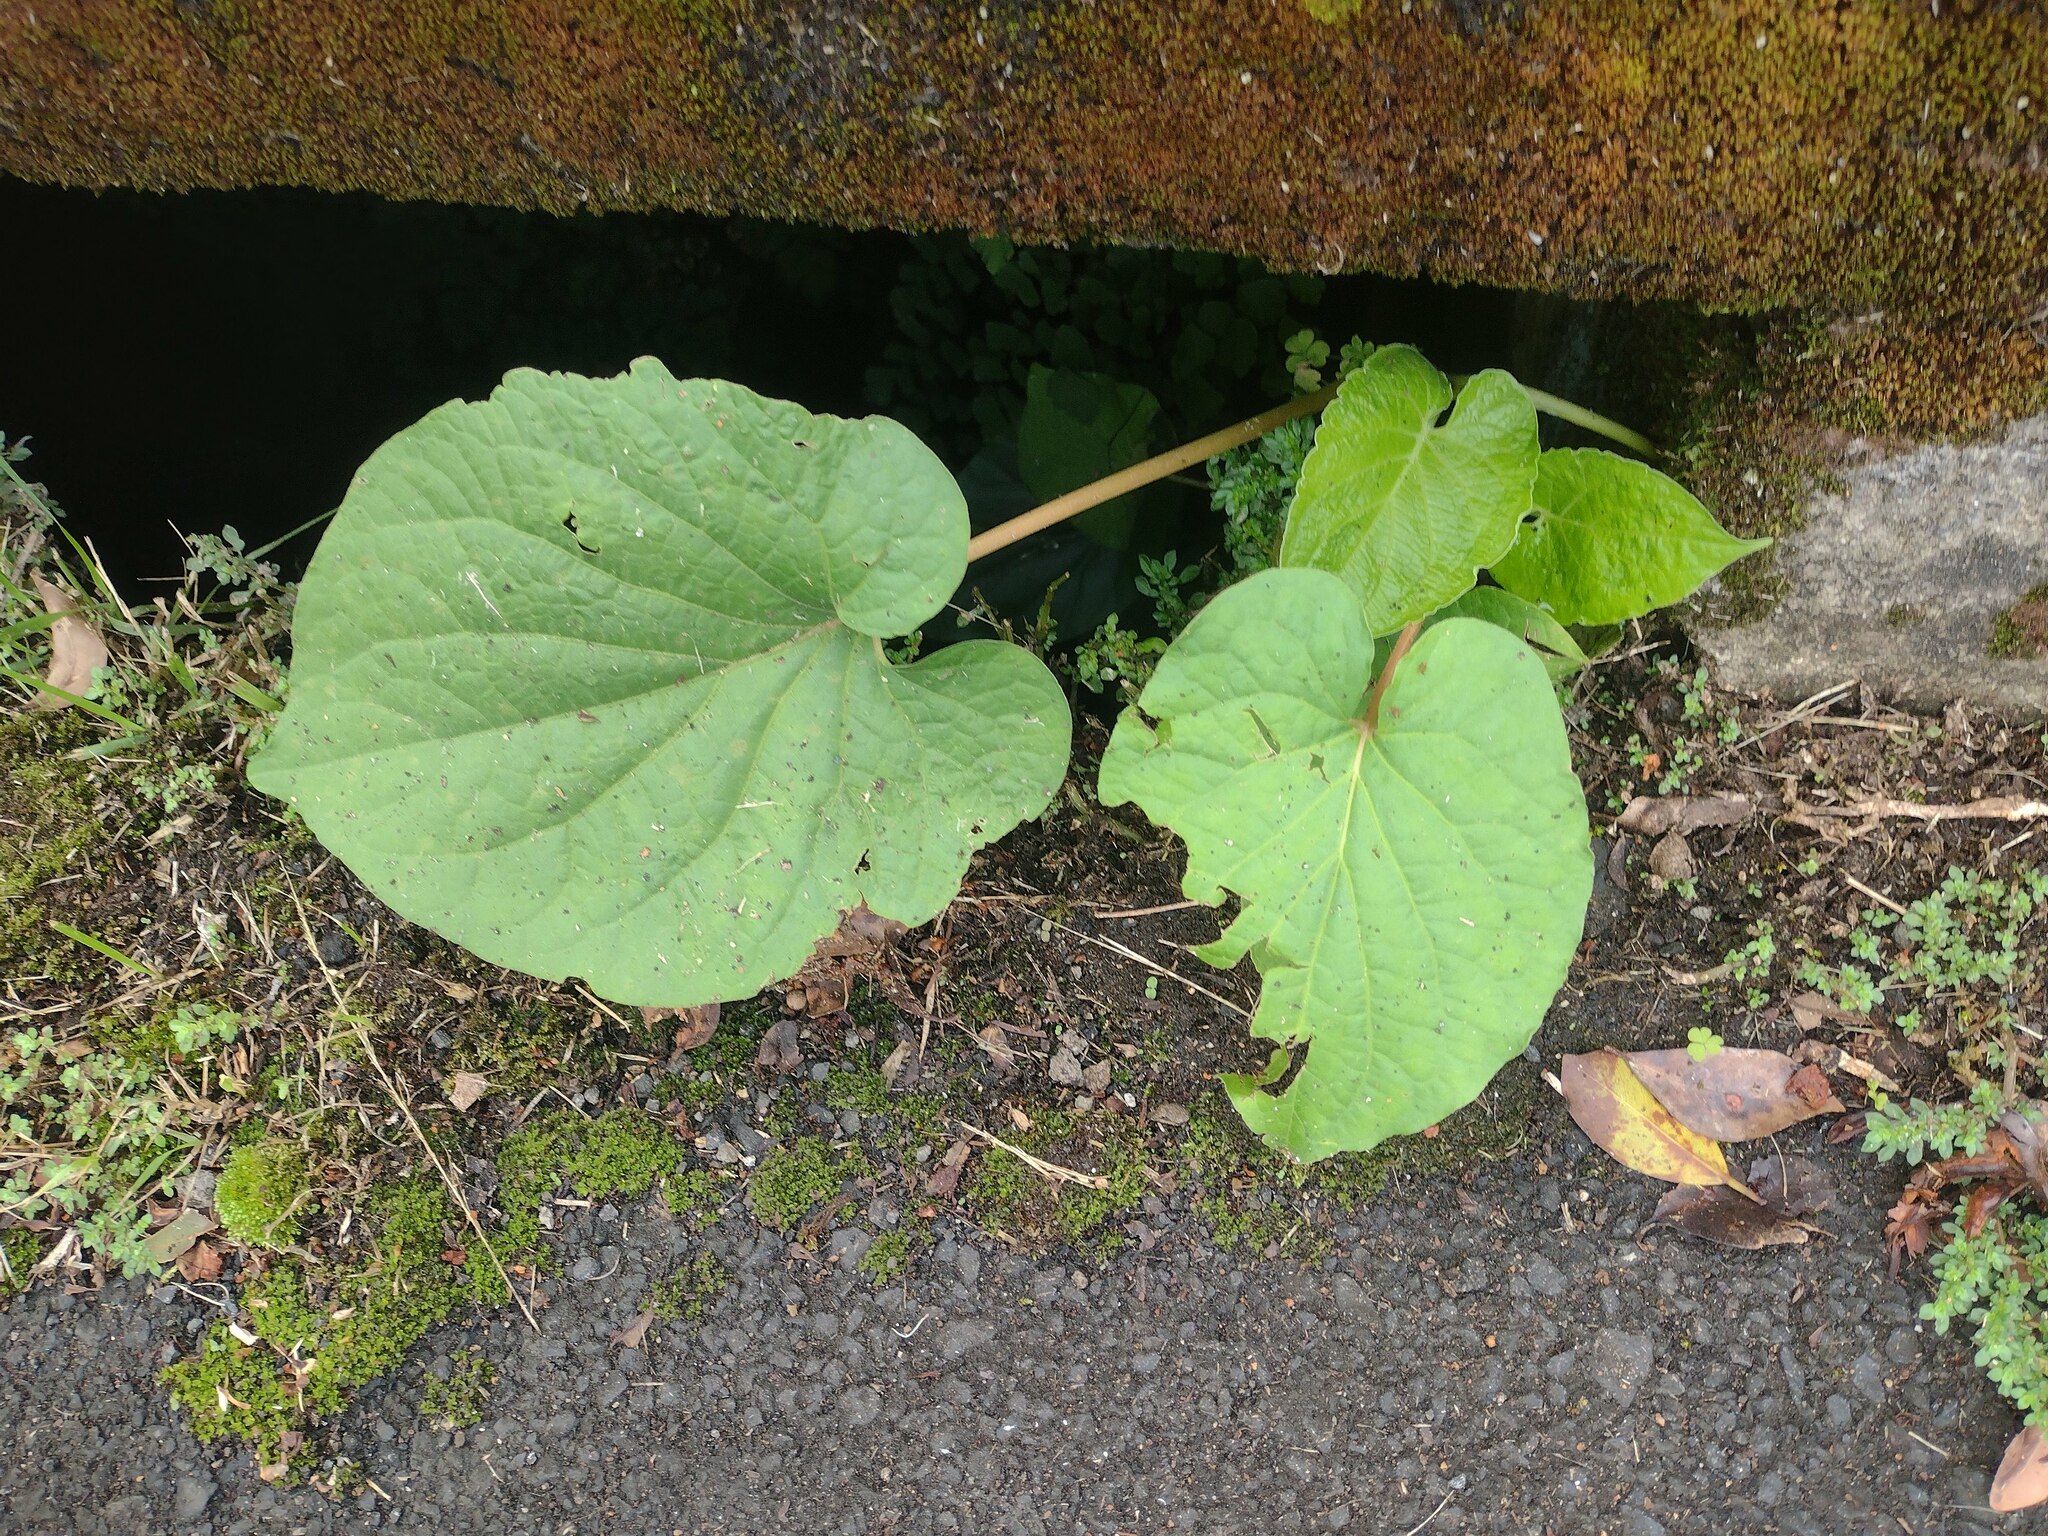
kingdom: Plantae
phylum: Tracheophyta
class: Magnoliopsida
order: Piperales
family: Piperaceae
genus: Piper
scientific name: Piper auritum
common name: Vera cruz pepper
